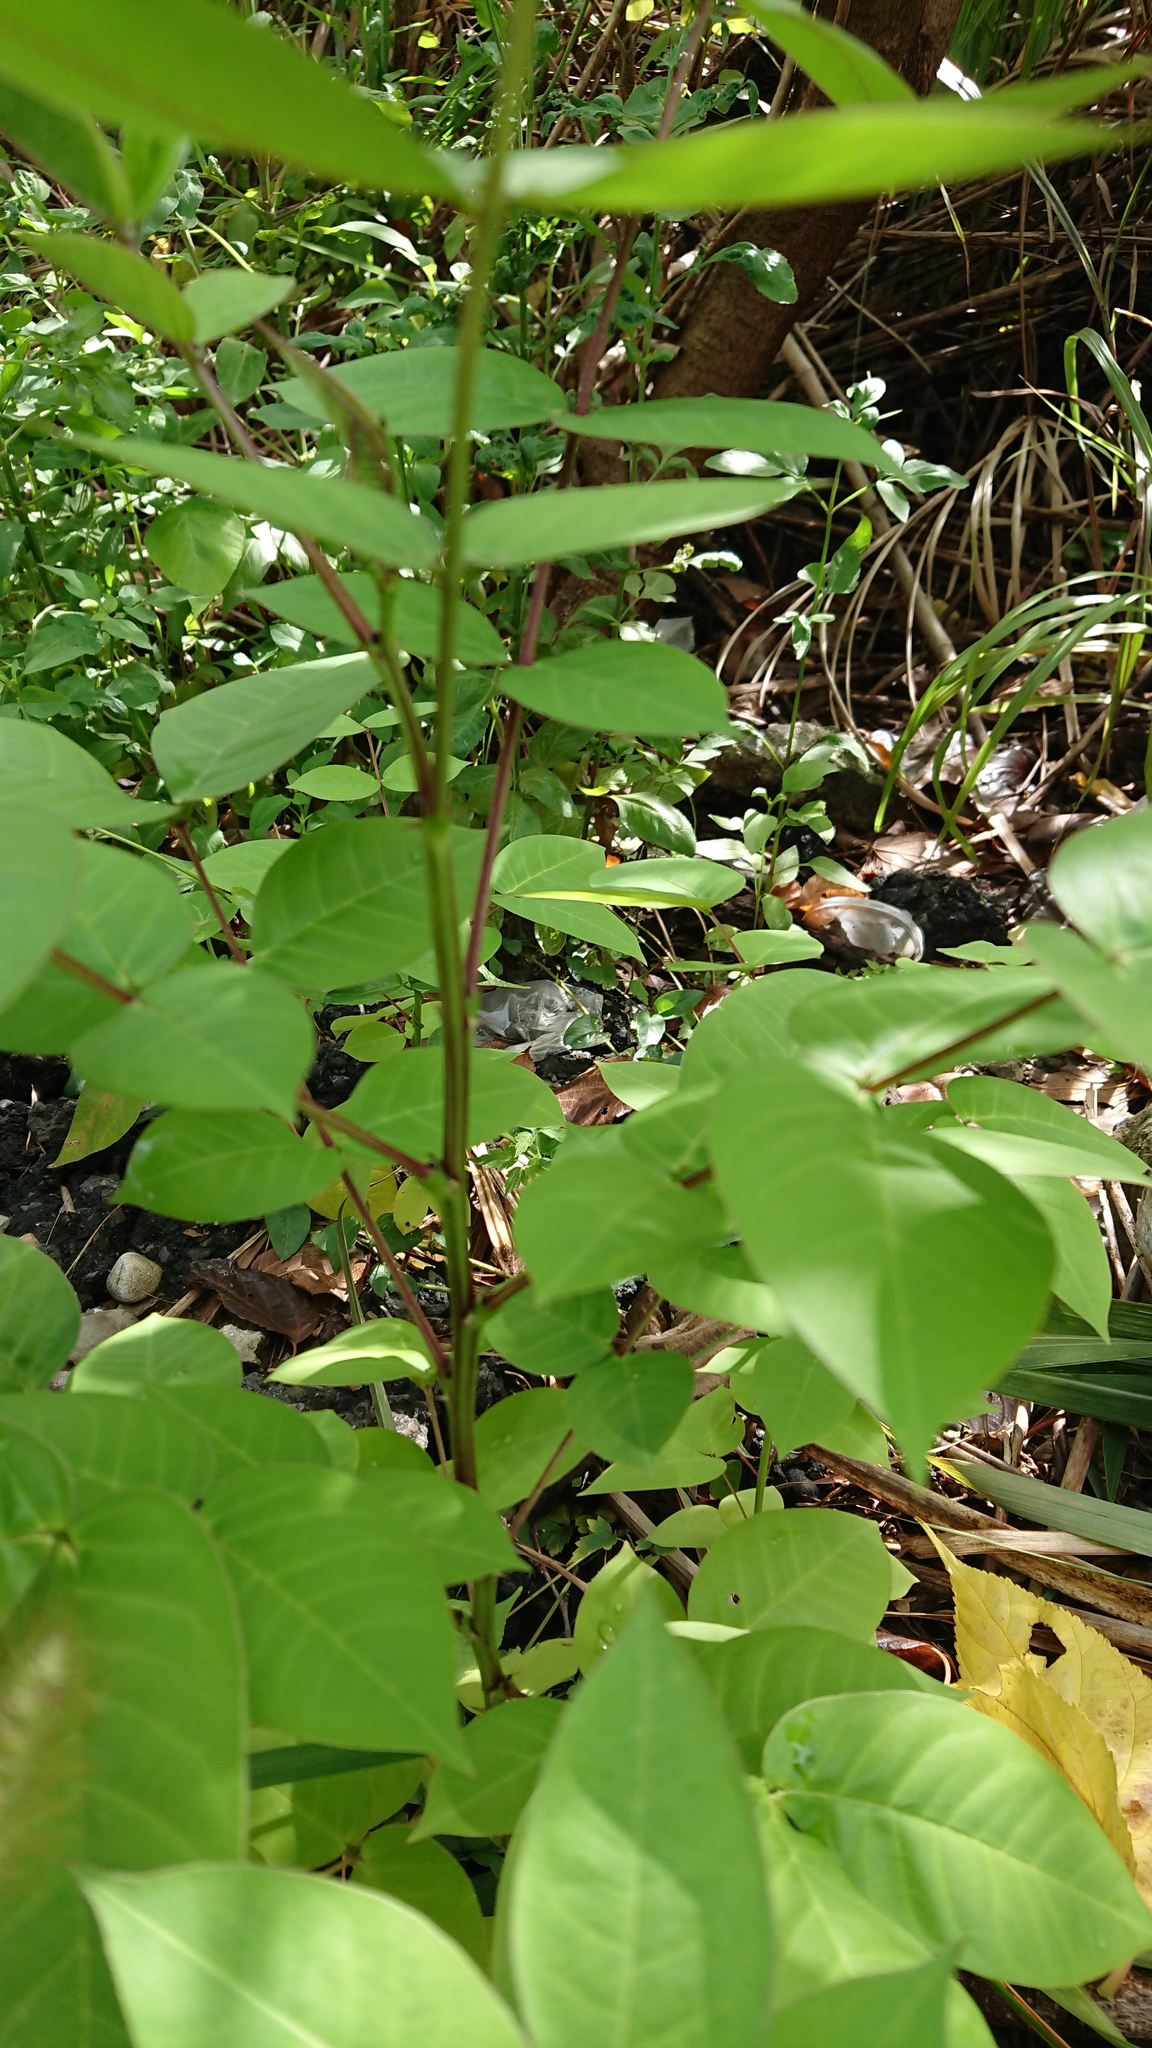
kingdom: Plantae
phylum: Tracheophyta
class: Magnoliopsida
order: Fabales
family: Fabaceae
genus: Senna
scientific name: Senna occidentalis
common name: Septicweed
